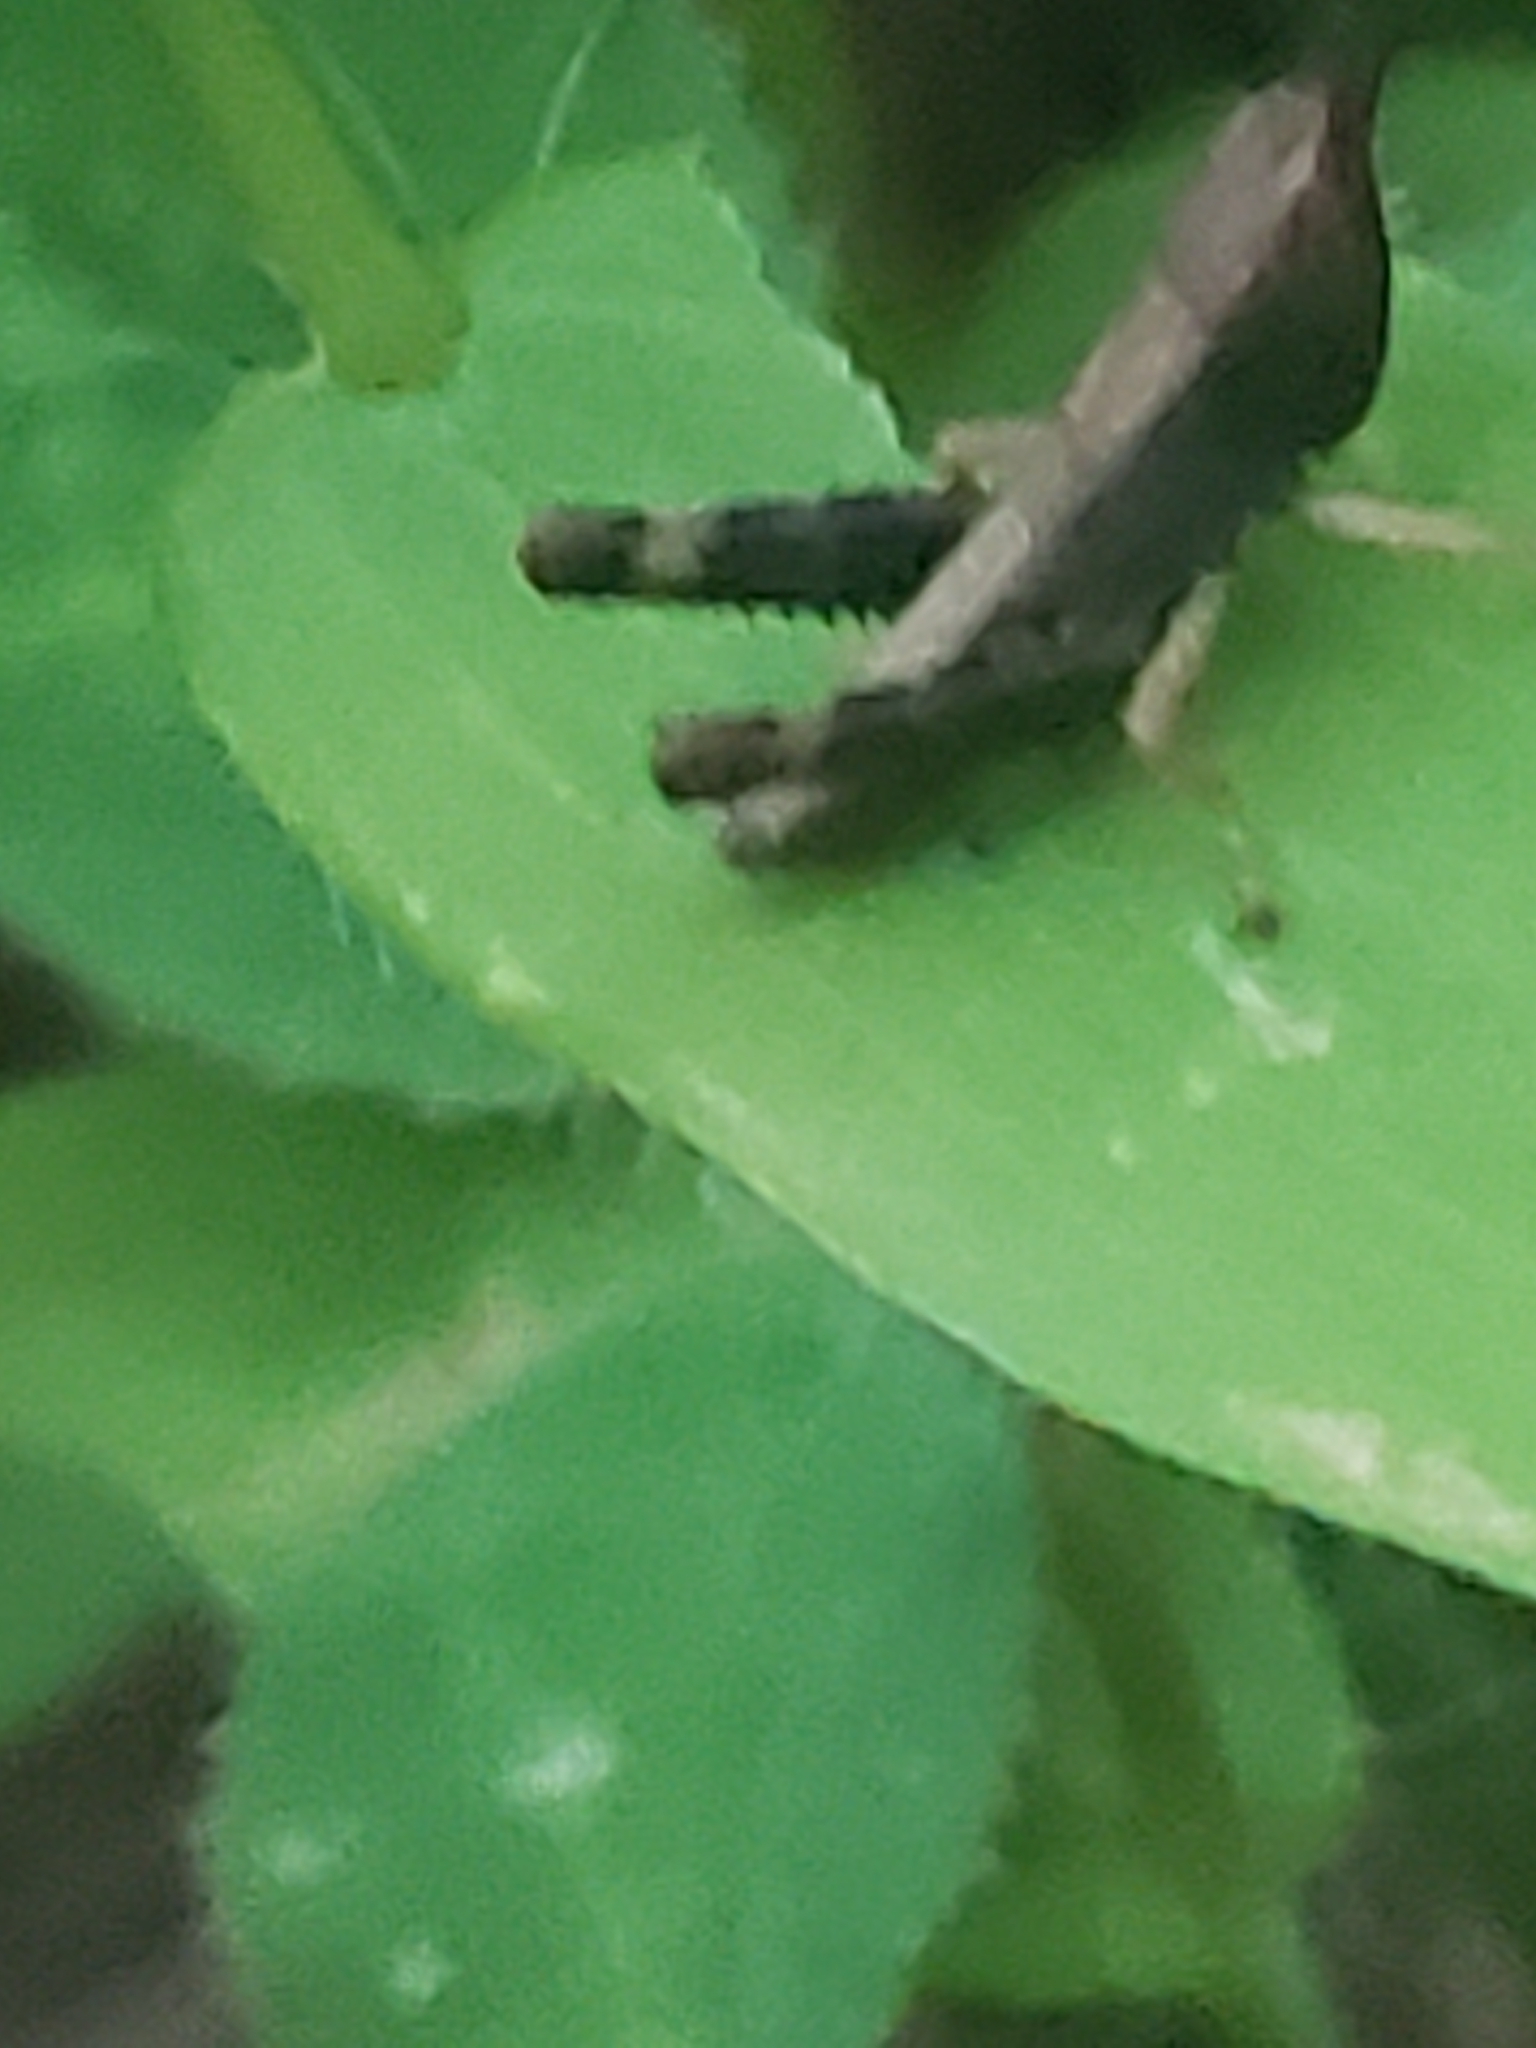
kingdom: Animalia
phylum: Arthropoda
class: Insecta
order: Orthoptera
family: Acrididae
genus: Dichromorpha
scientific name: Dichromorpha viridis
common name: Short-winged green grasshopper
